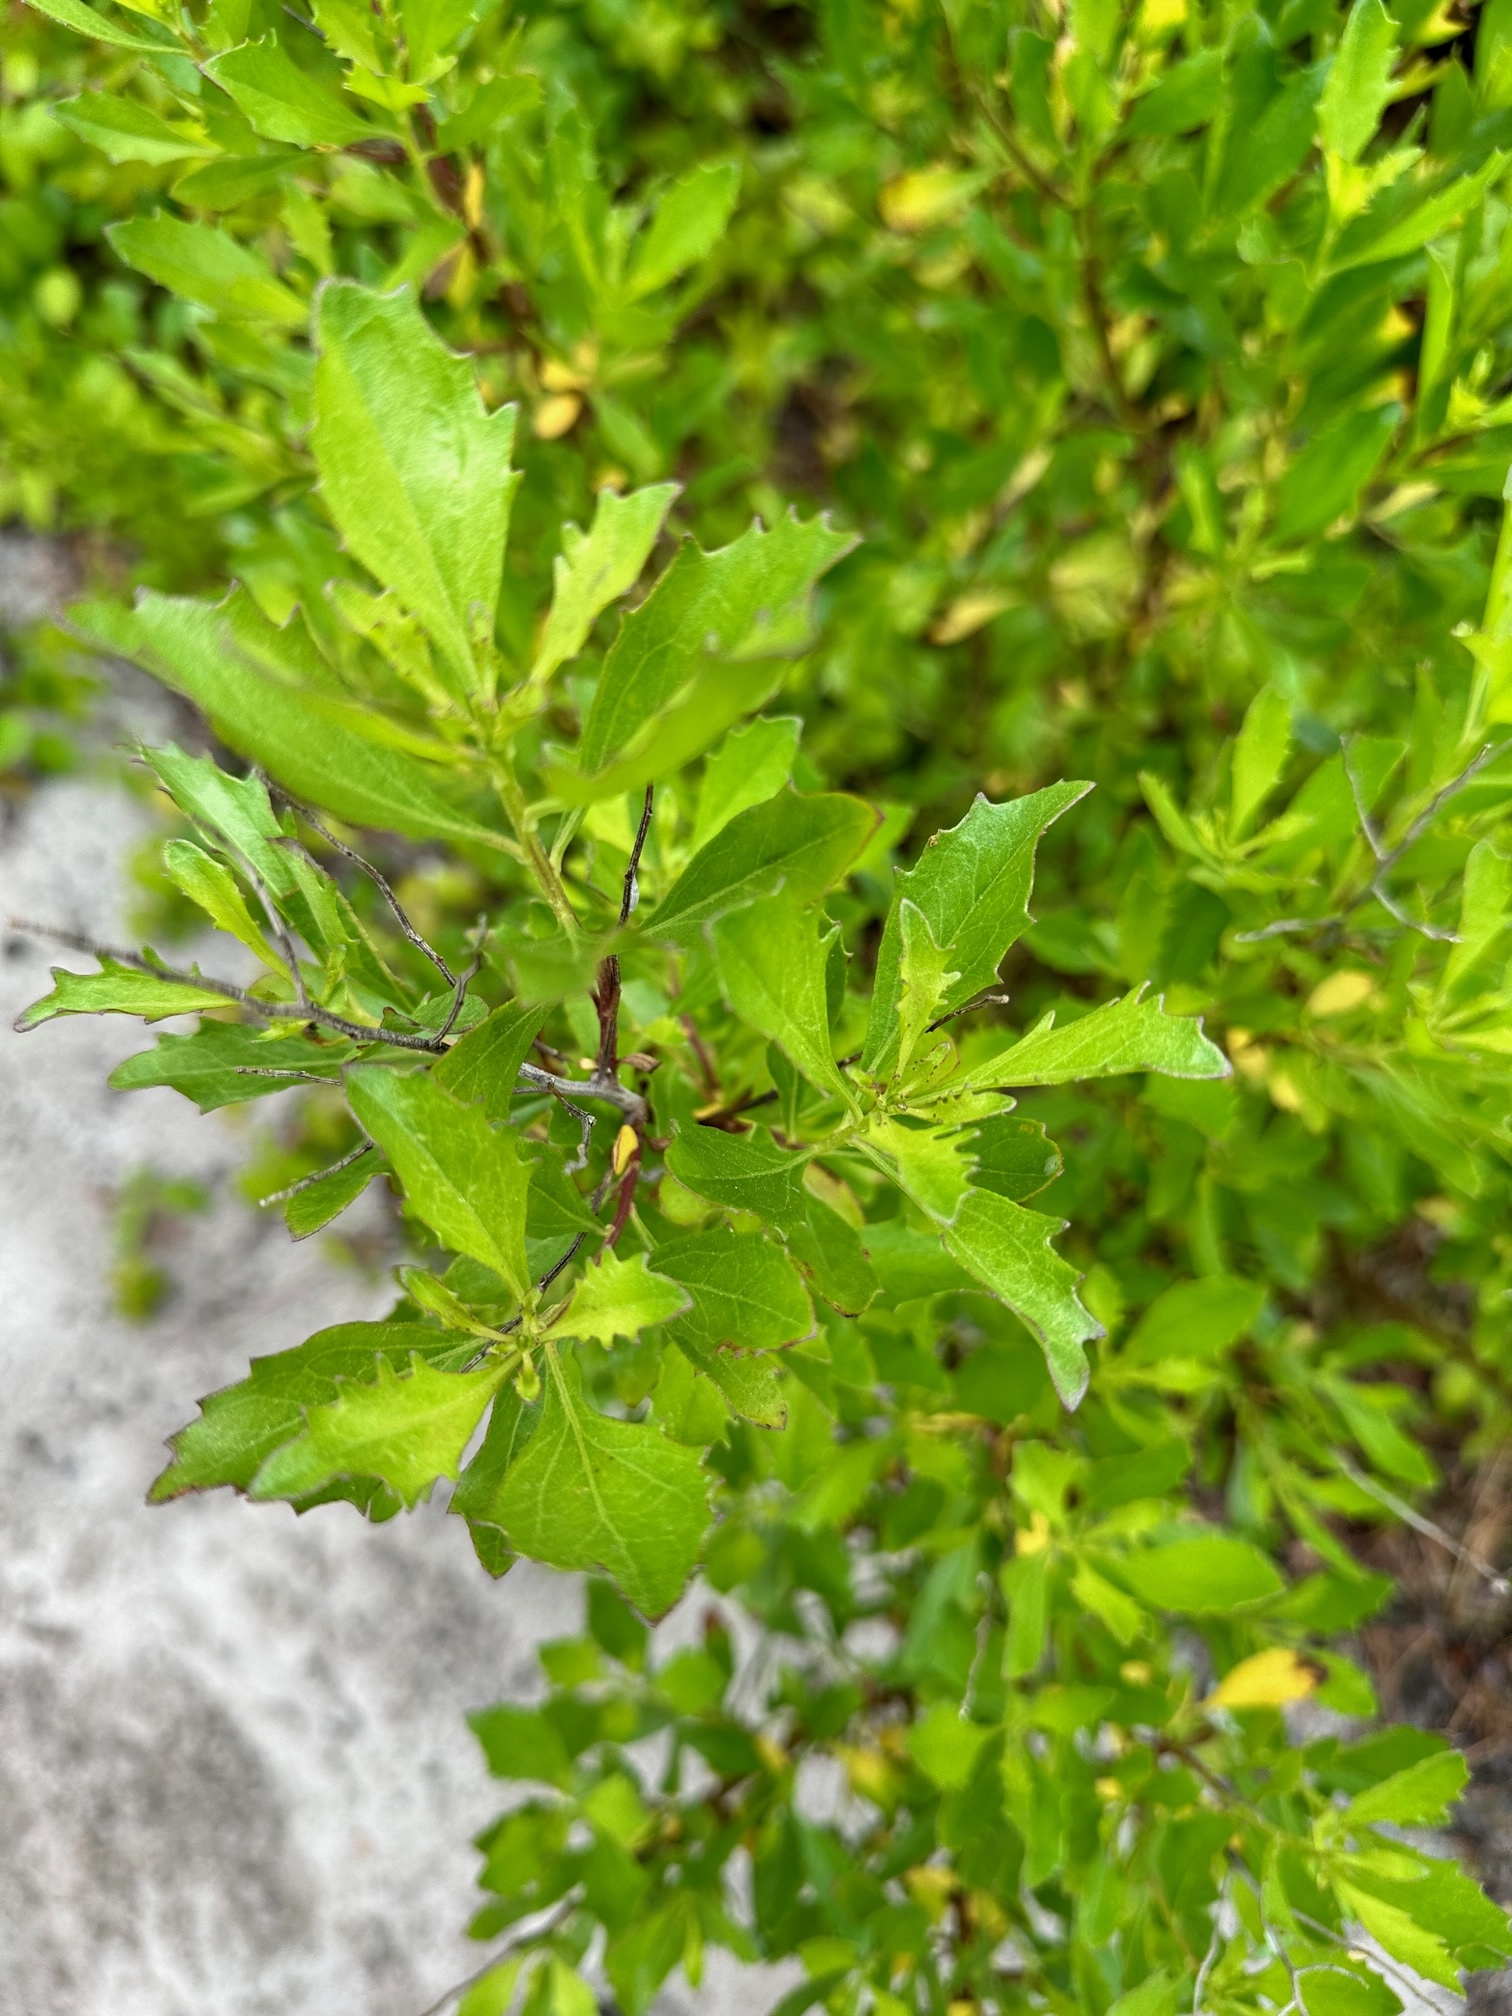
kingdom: Plantae
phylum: Tracheophyta
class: Magnoliopsida
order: Asterales
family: Asteraceae
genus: Baccharis
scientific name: Baccharis halimifolia
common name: Eastern baccharis
